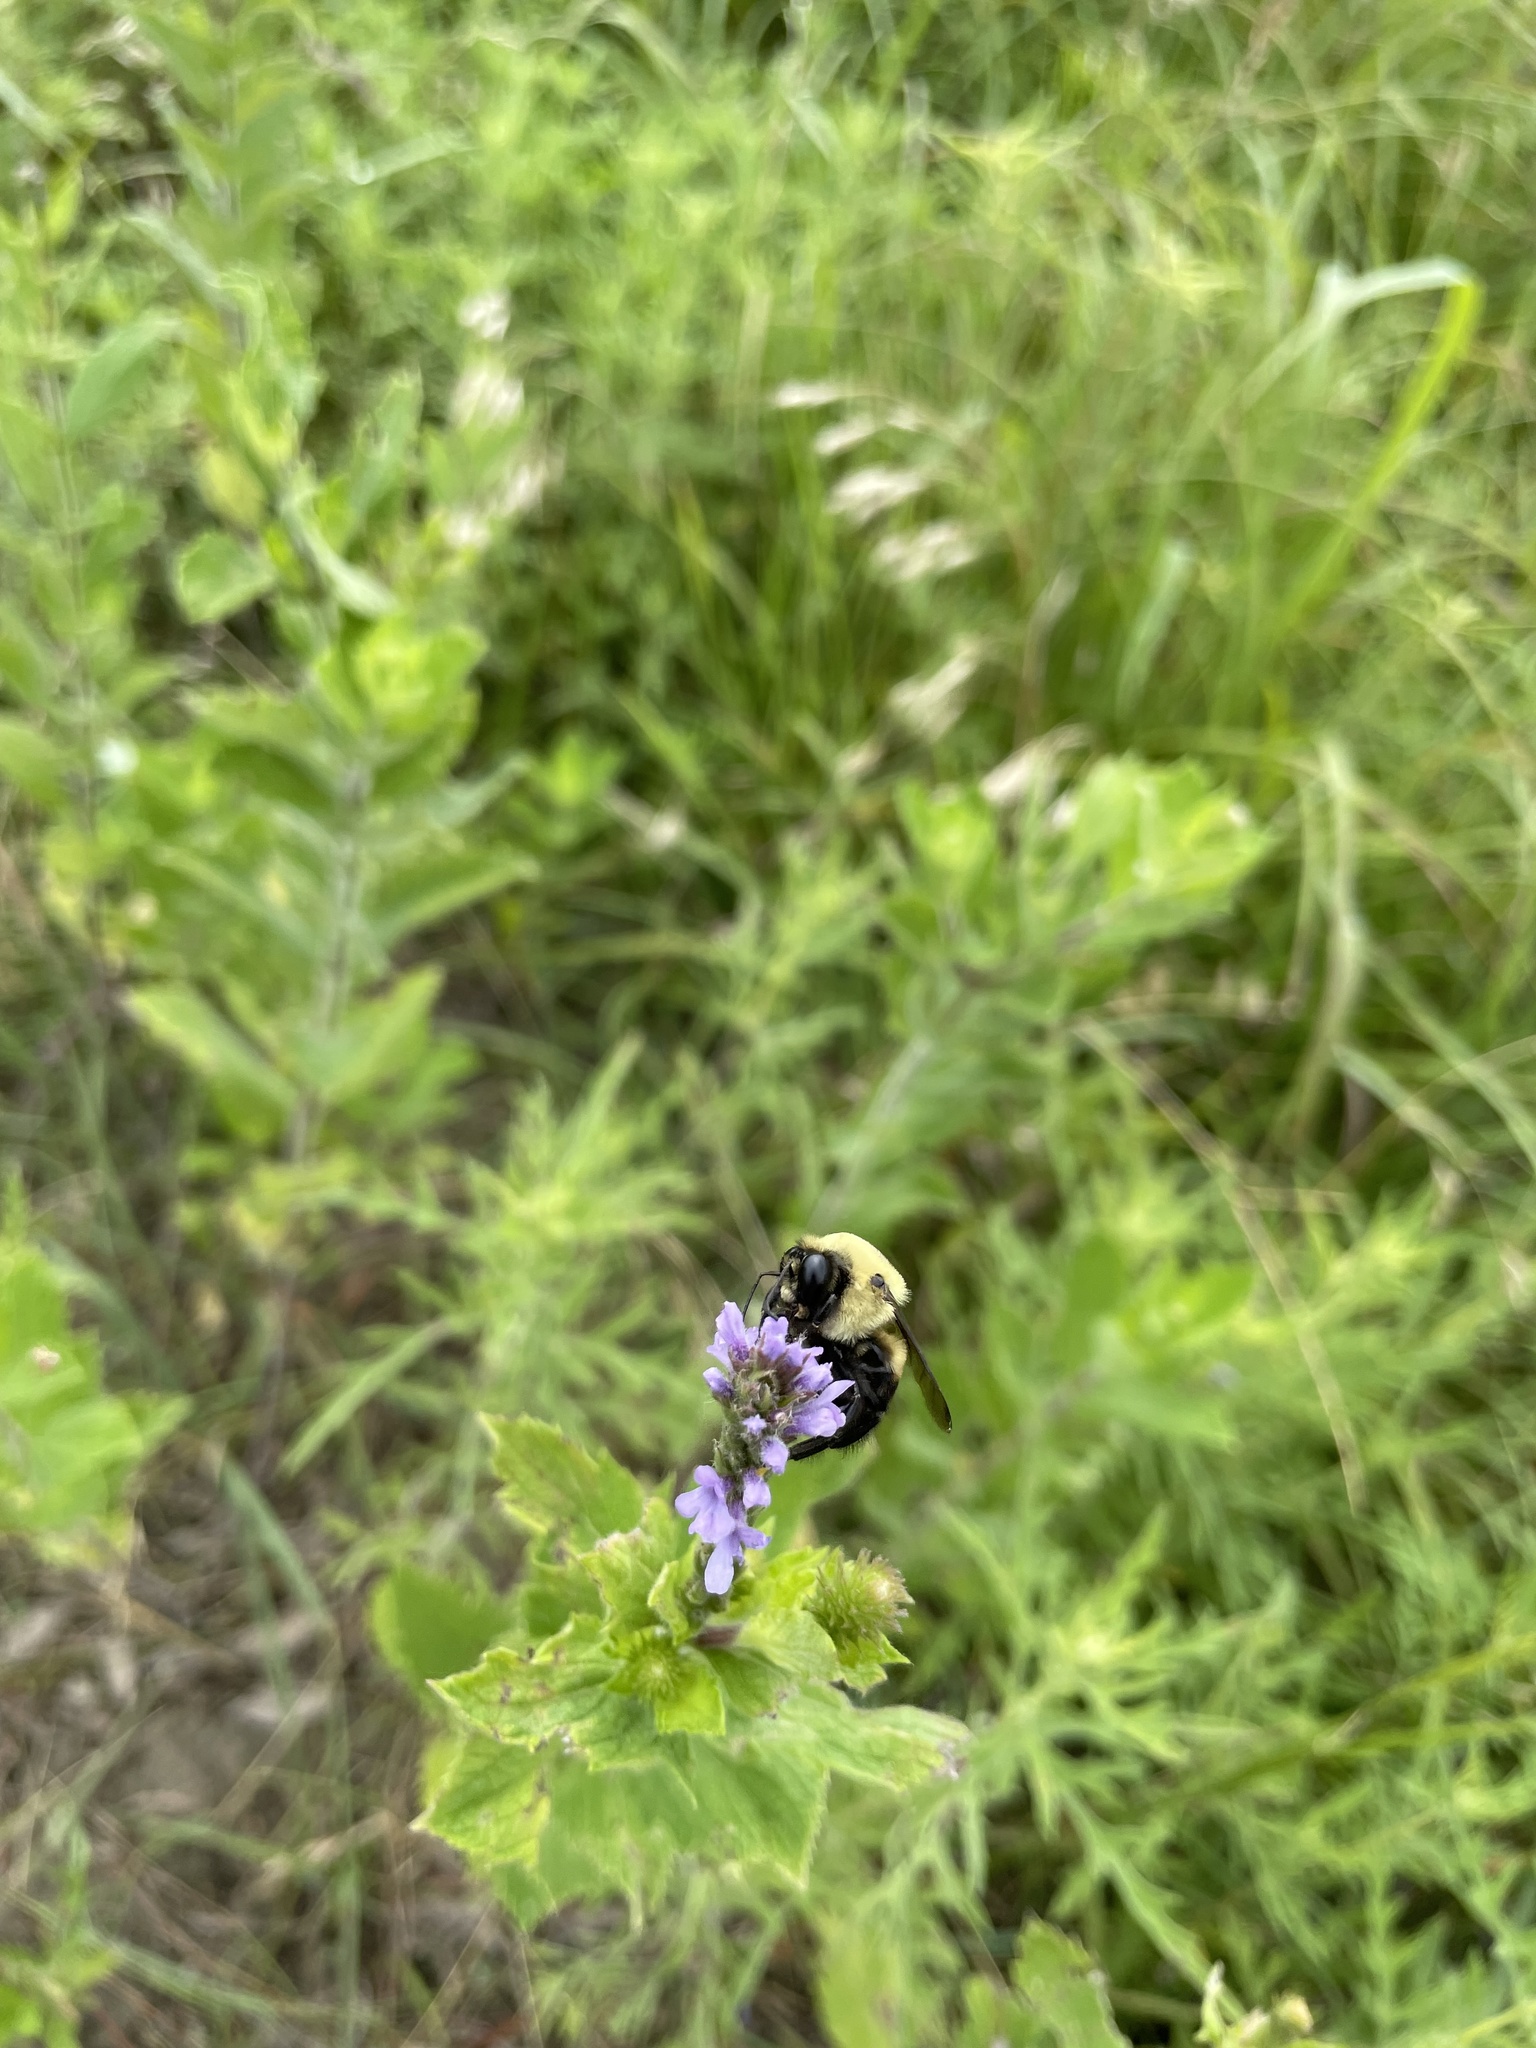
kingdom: Animalia
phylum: Arthropoda
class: Insecta
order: Hymenoptera
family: Apidae
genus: Bombus
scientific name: Bombus griseocollis
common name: Brown-belted bumble bee
